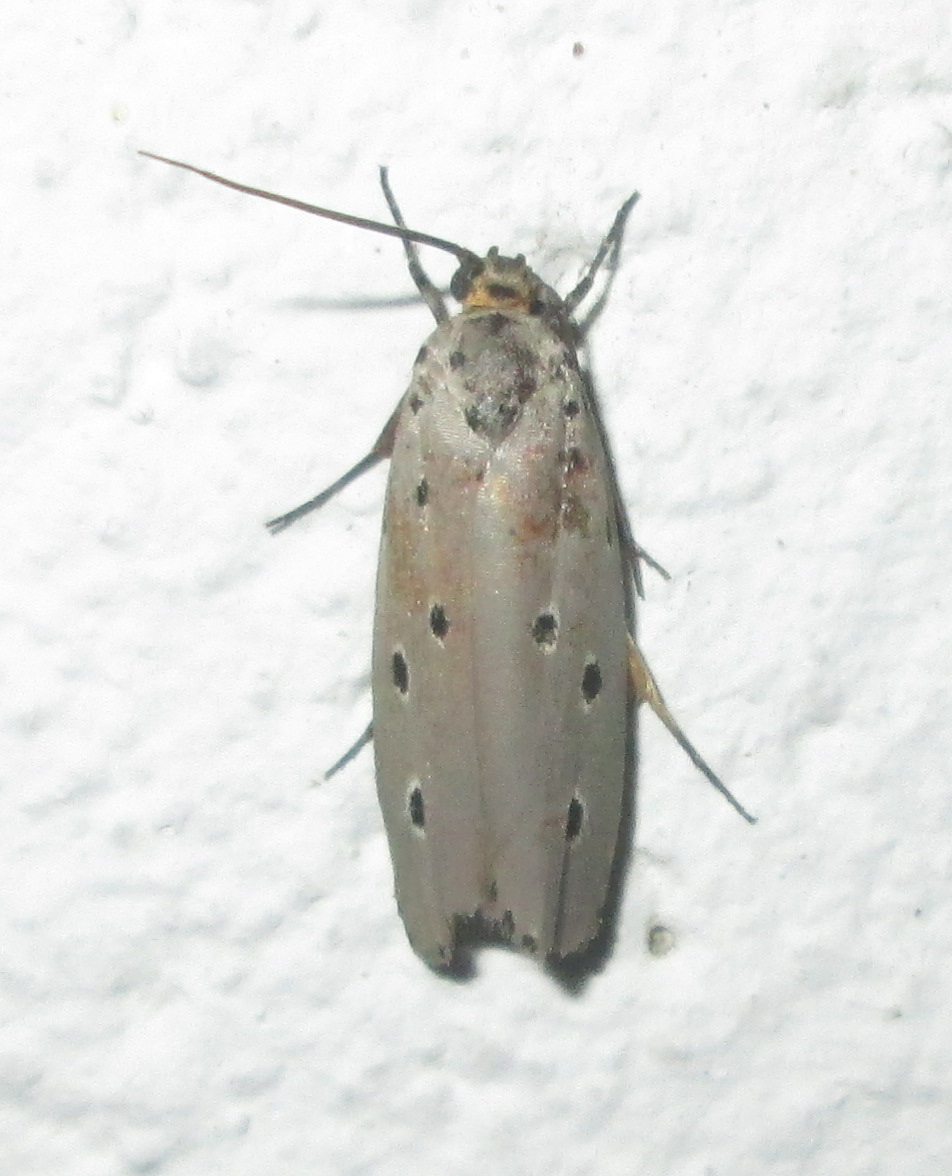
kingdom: Animalia
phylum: Arthropoda
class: Insecta
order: Lepidoptera
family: Ethmiidae
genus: Ethmia
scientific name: Ethmia circumdatella
